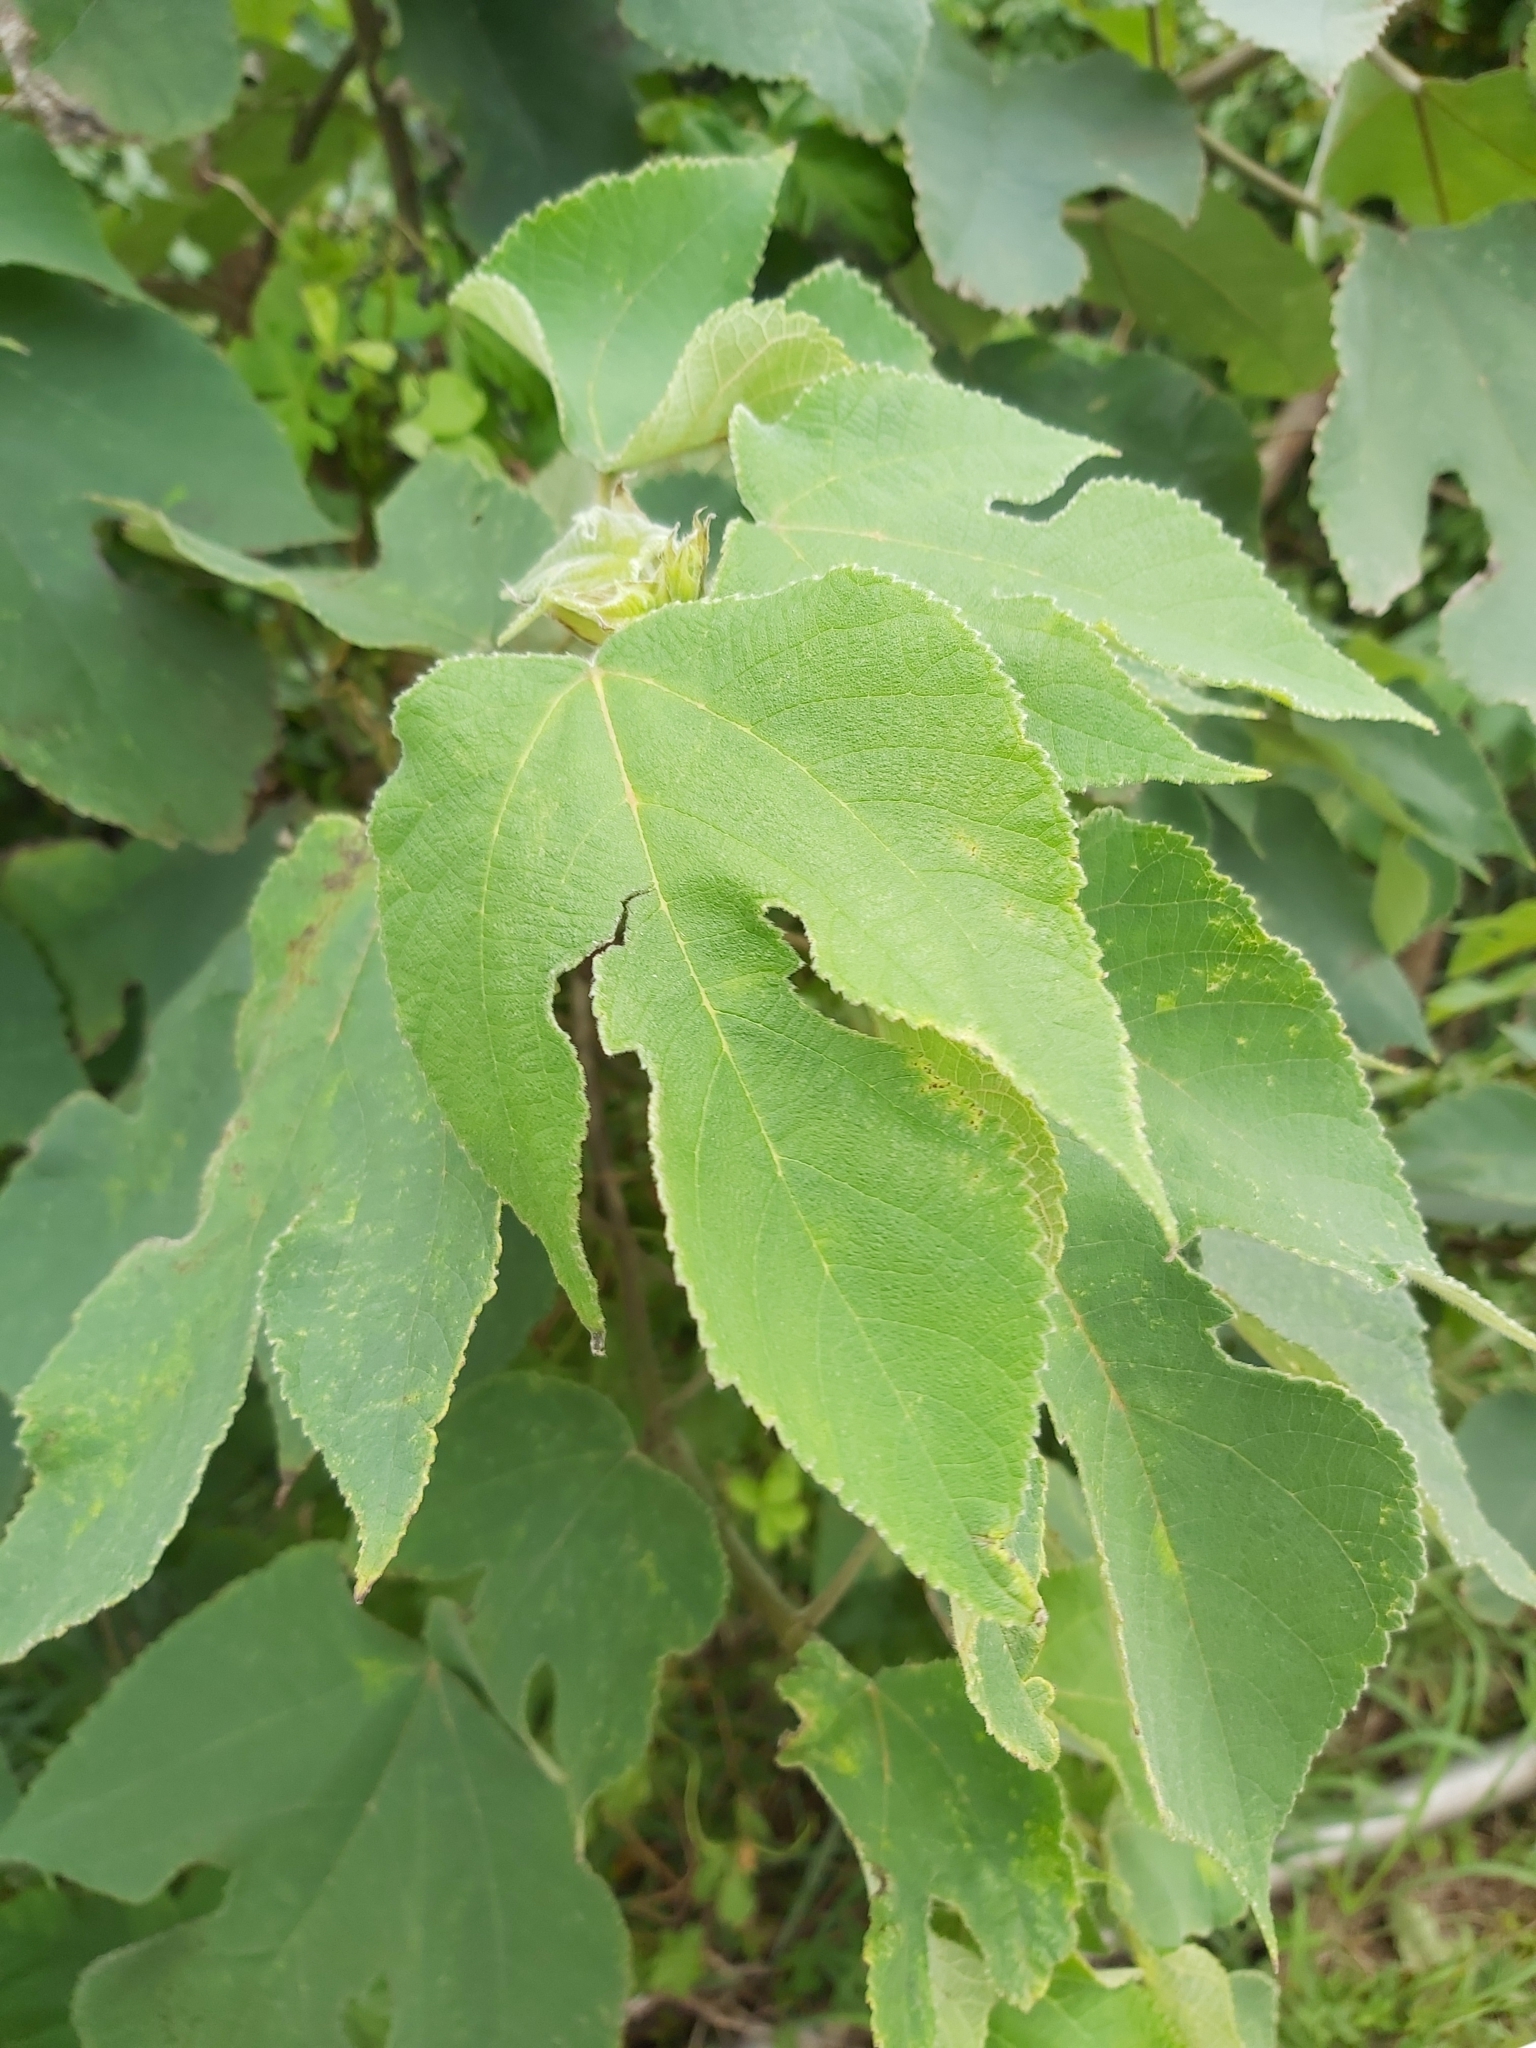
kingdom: Plantae
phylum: Tracheophyta
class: Magnoliopsida
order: Rosales
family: Moraceae
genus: Broussonetia
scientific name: Broussonetia papyrifera
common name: Paper mulberry
